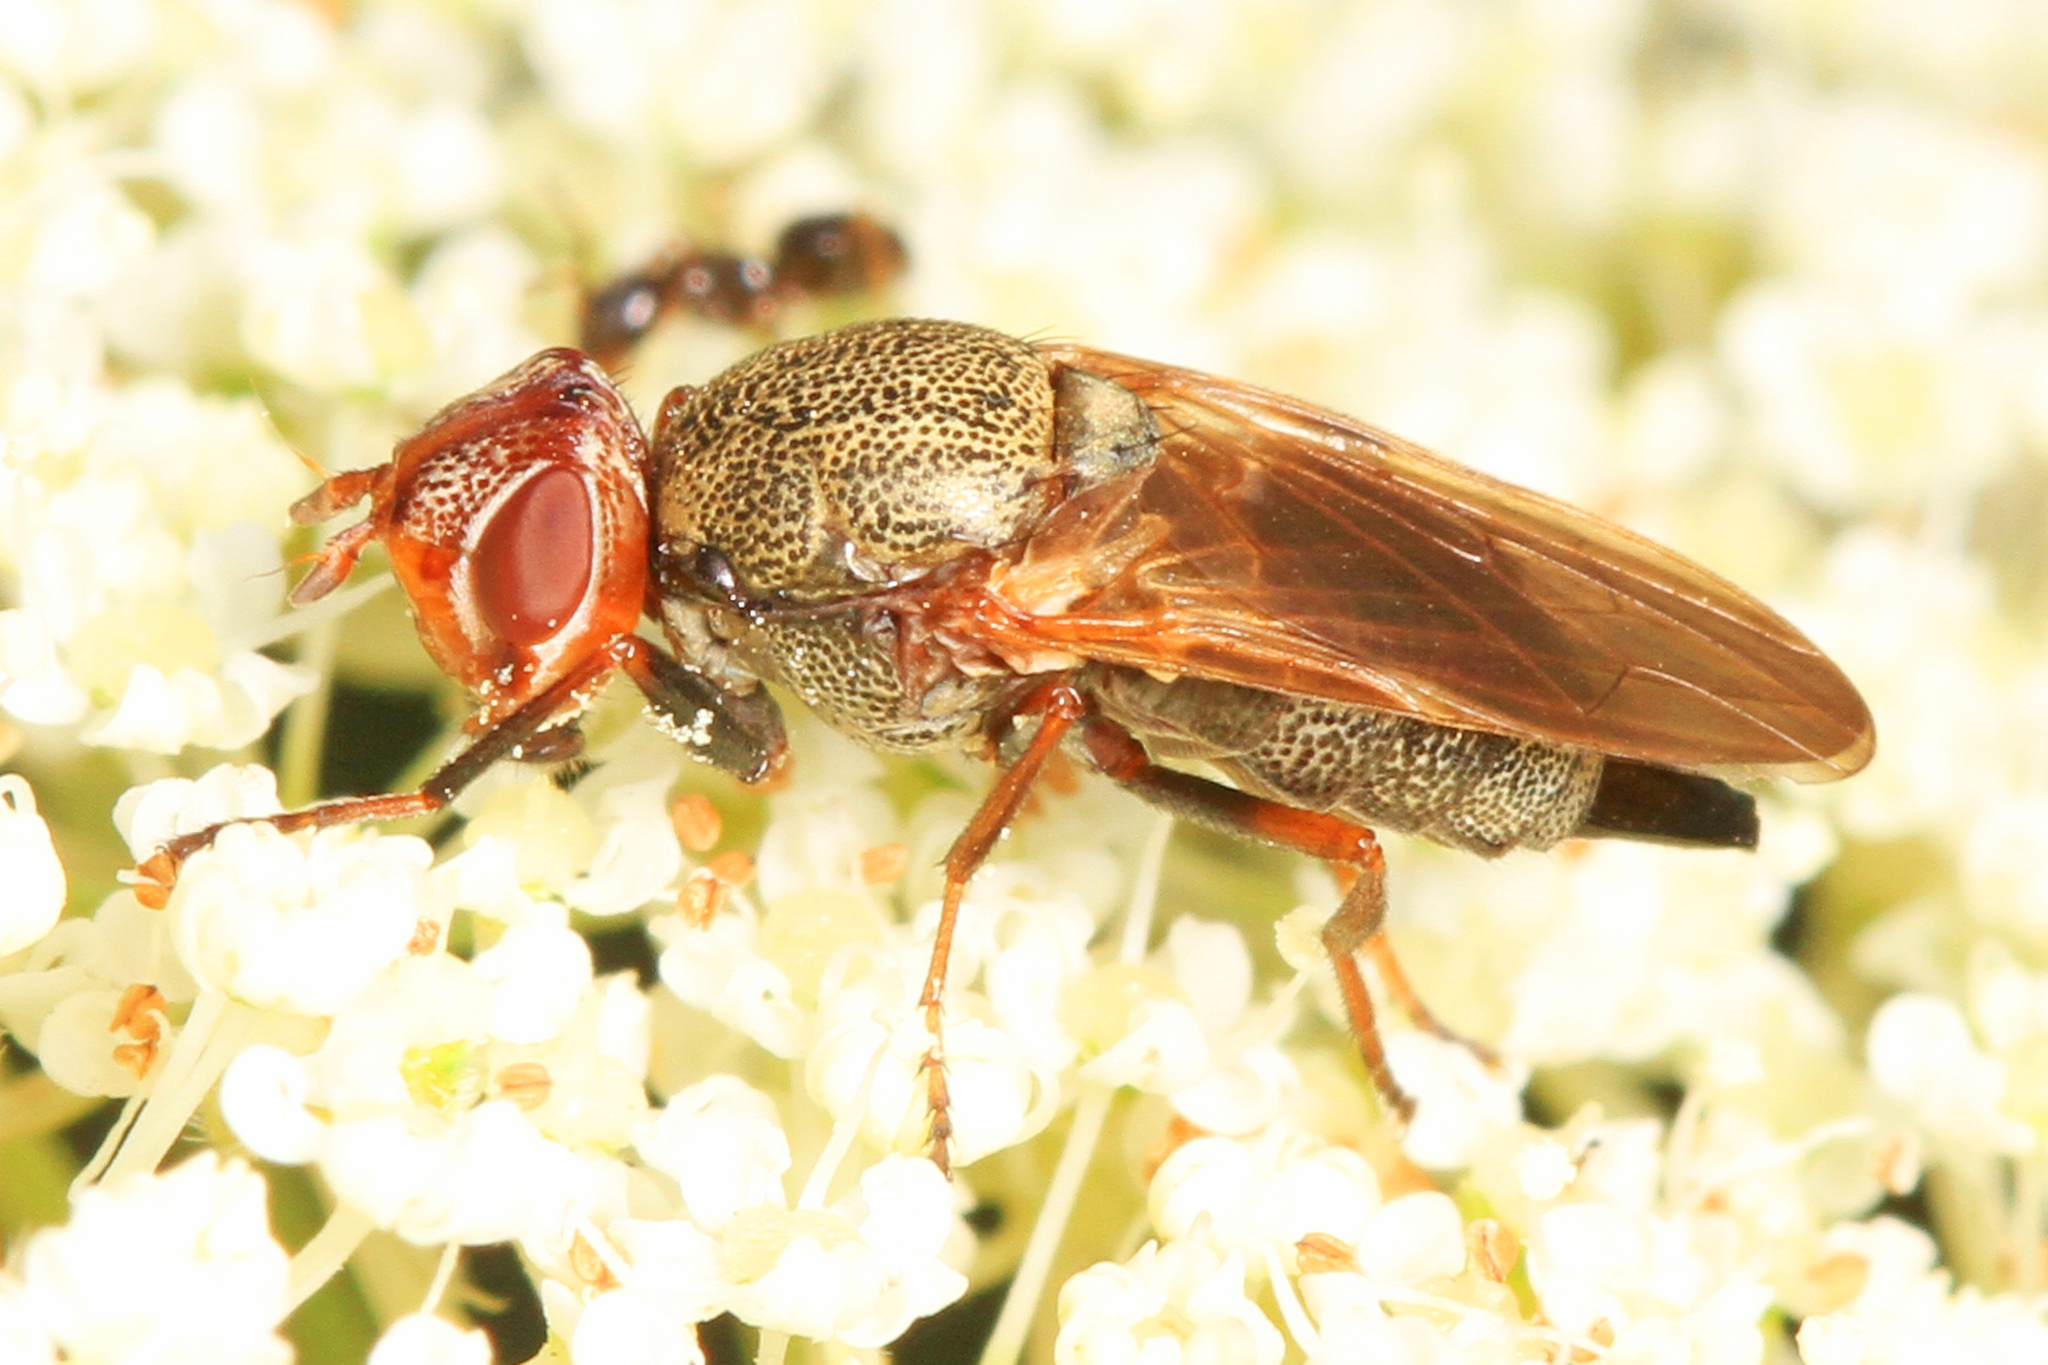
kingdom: Animalia
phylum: Arthropoda
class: Insecta
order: Diptera
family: Ulidiidae
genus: Tetanops
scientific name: Tetanops luridipennis
